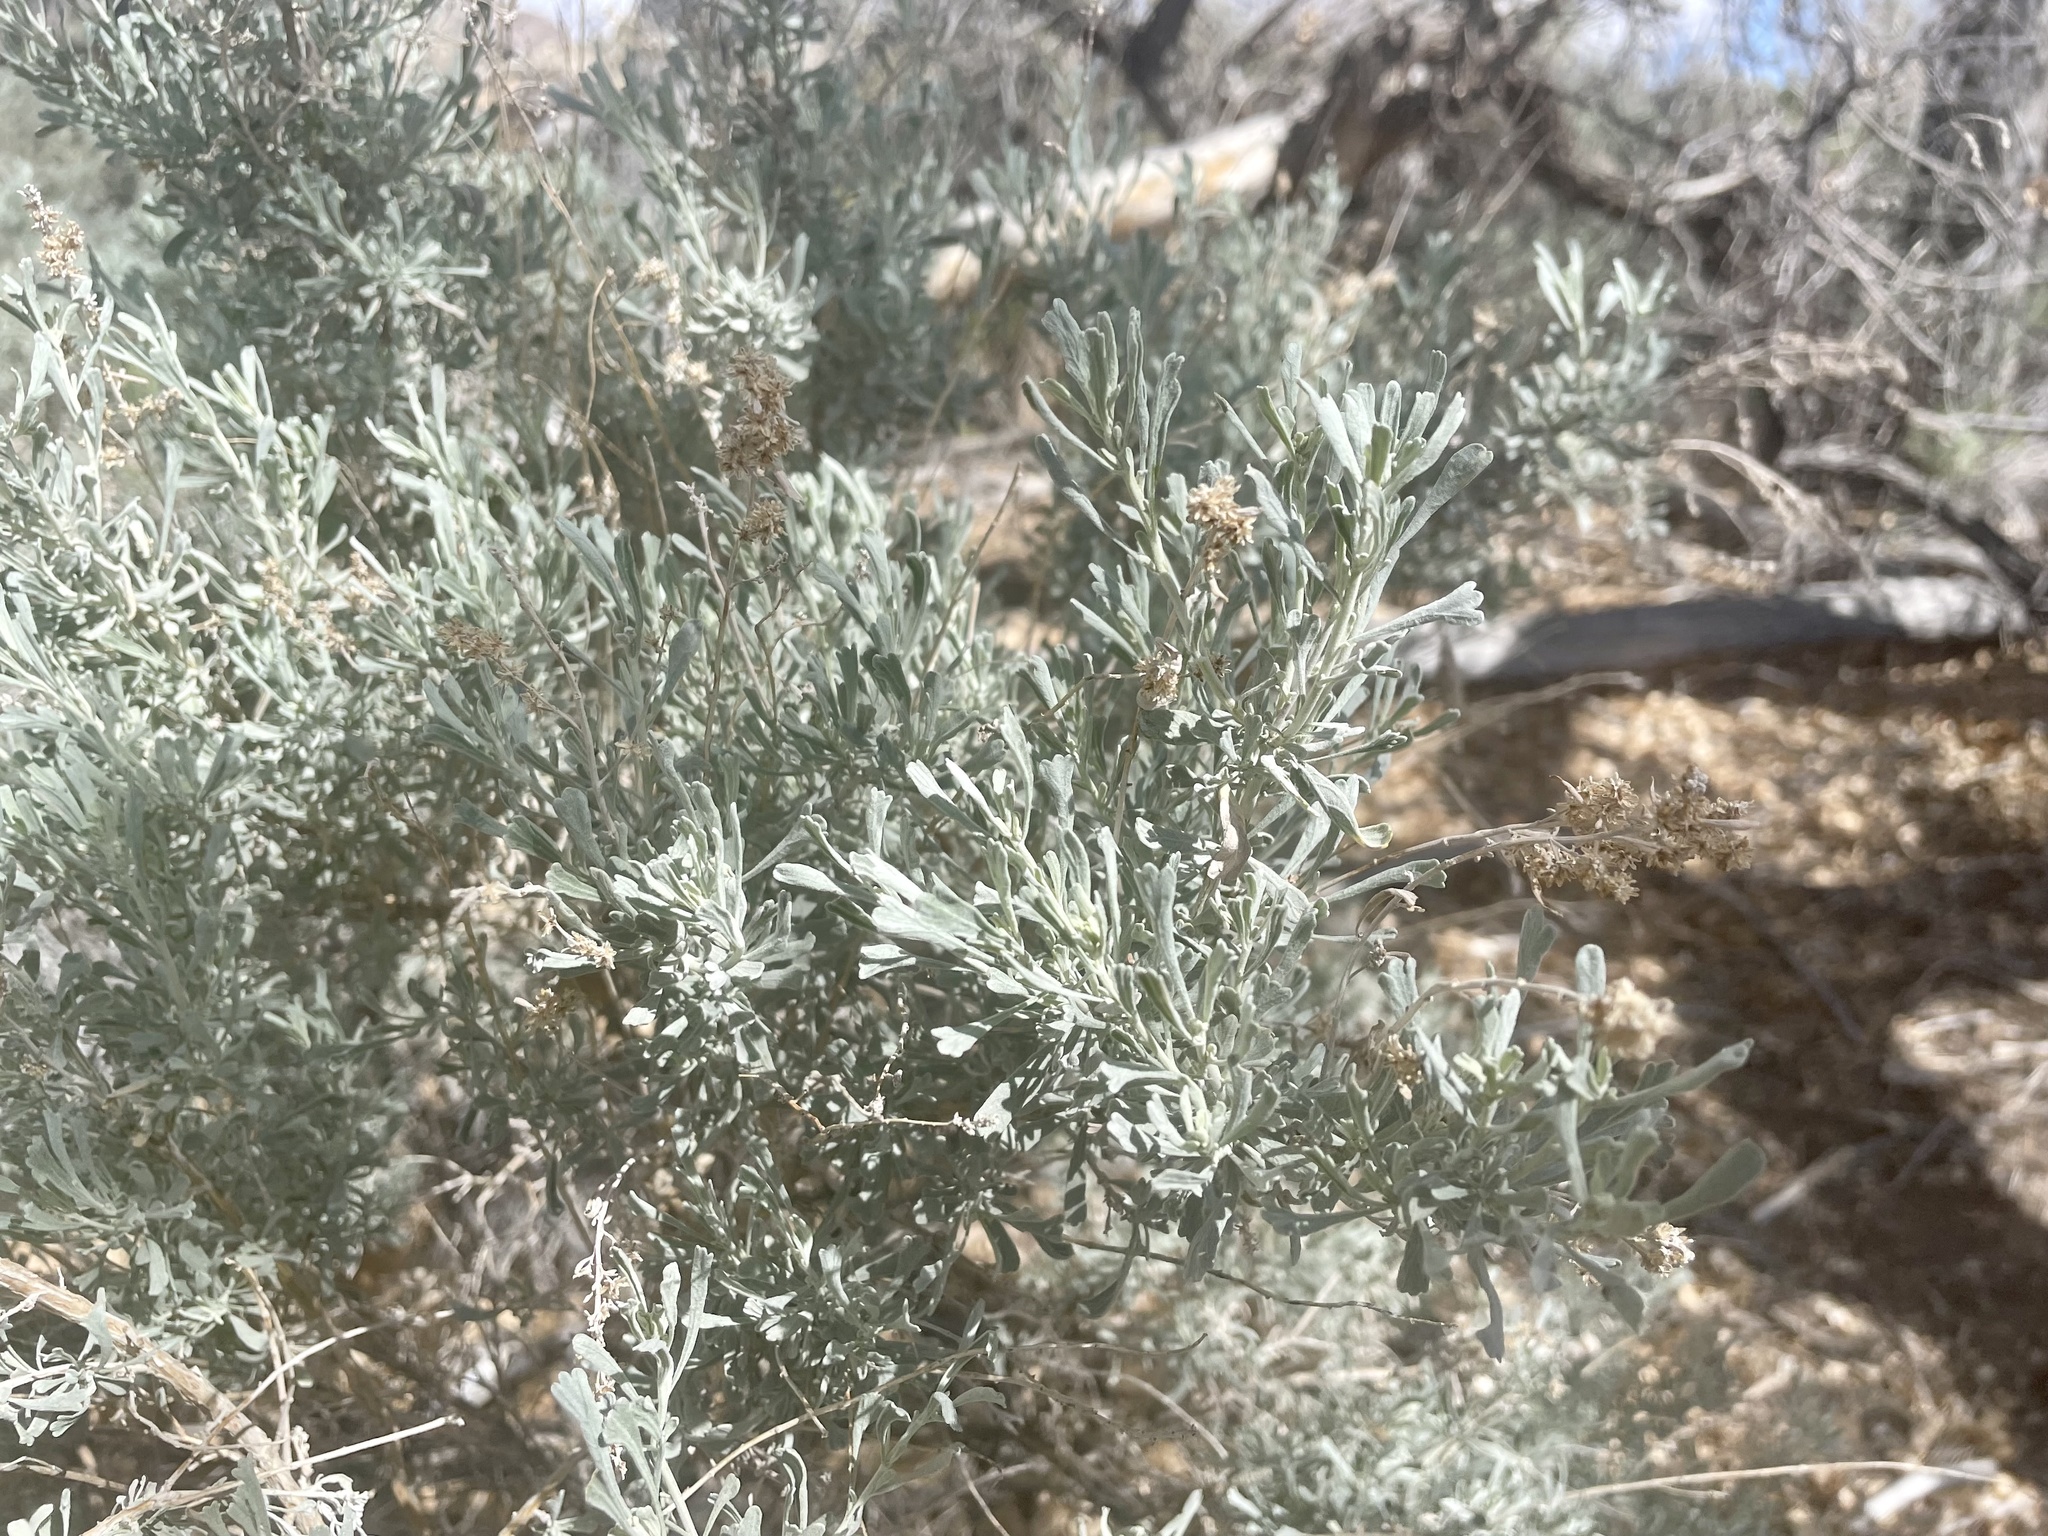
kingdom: Plantae
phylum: Tracheophyta
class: Magnoliopsida
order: Asterales
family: Asteraceae
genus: Artemisia
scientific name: Artemisia tridentata
